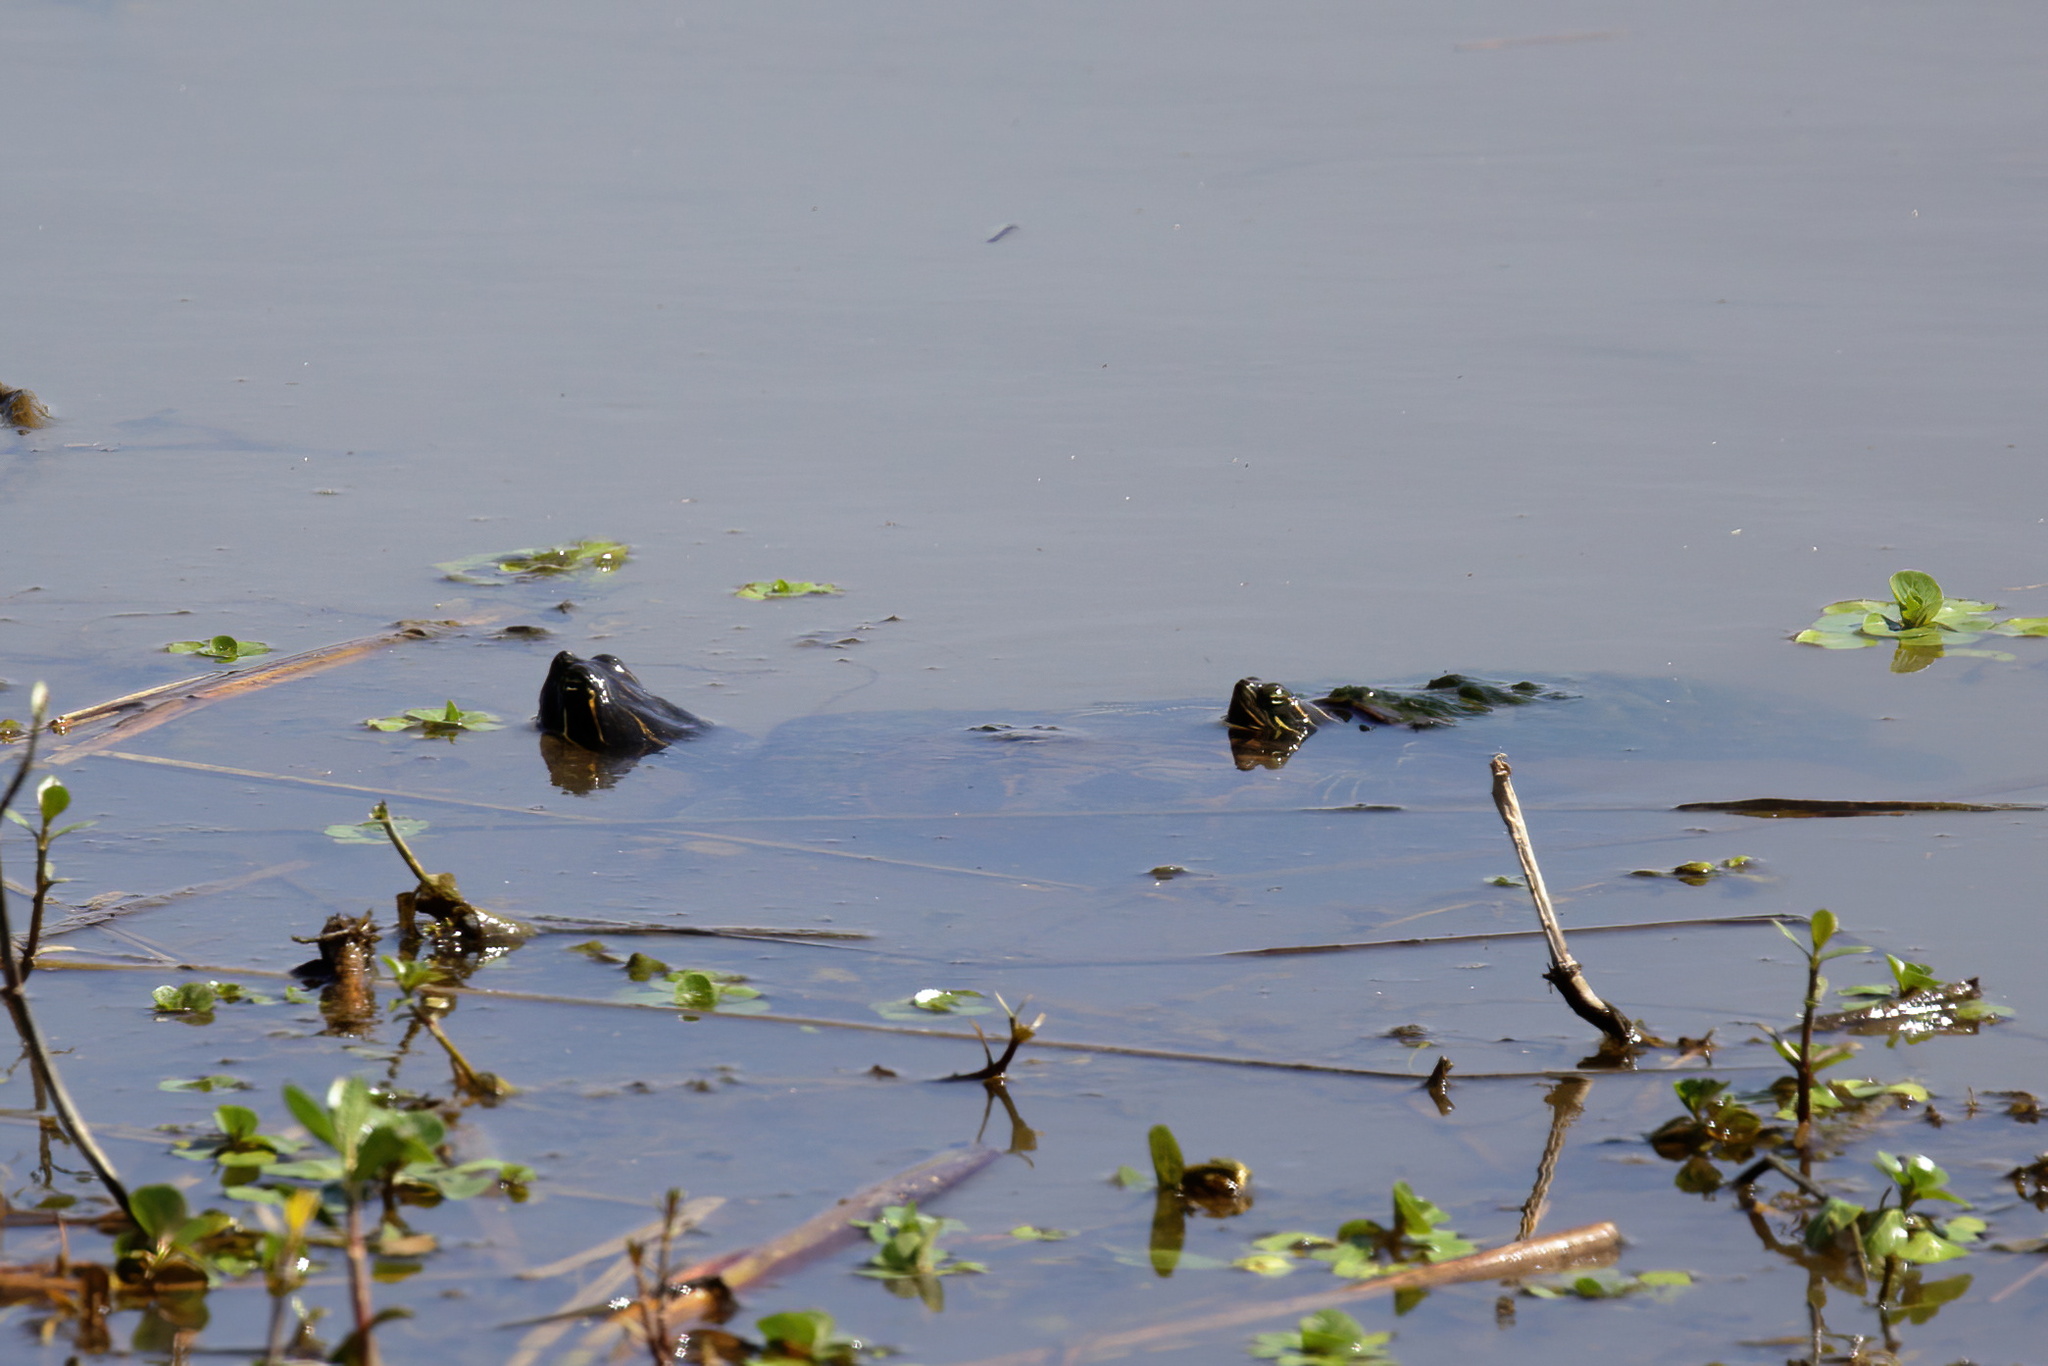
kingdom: Animalia
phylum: Chordata
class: Testudines
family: Emydidae
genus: Pseudemys
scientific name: Pseudemys concinna
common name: Eastern river cooter
